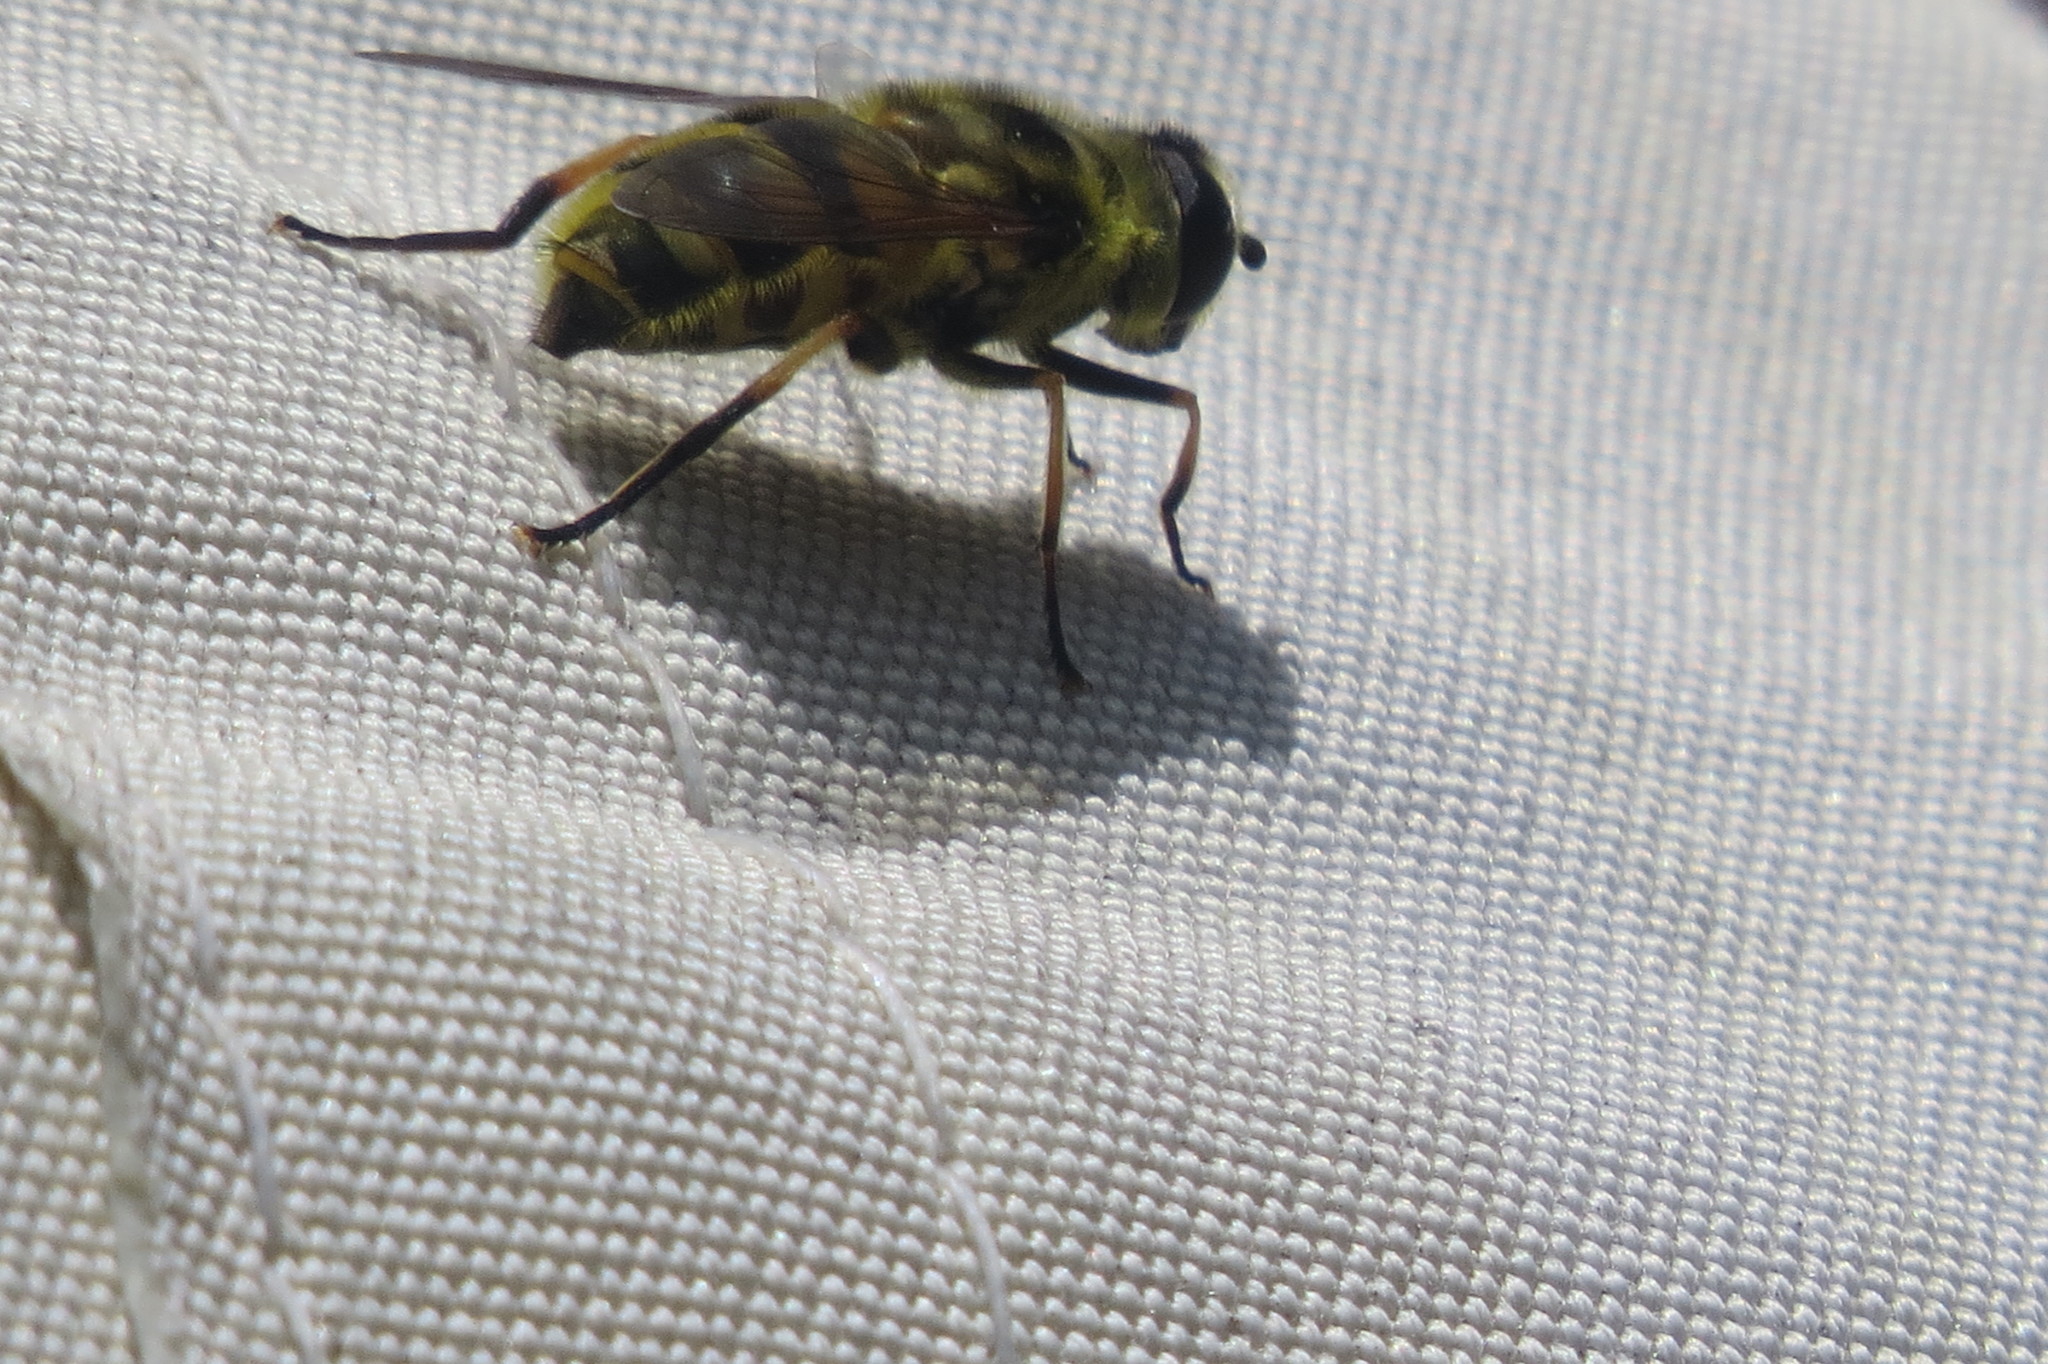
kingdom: Animalia
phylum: Arthropoda
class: Insecta
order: Diptera
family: Syrphidae
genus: Myathropa
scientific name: Myathropa florea
